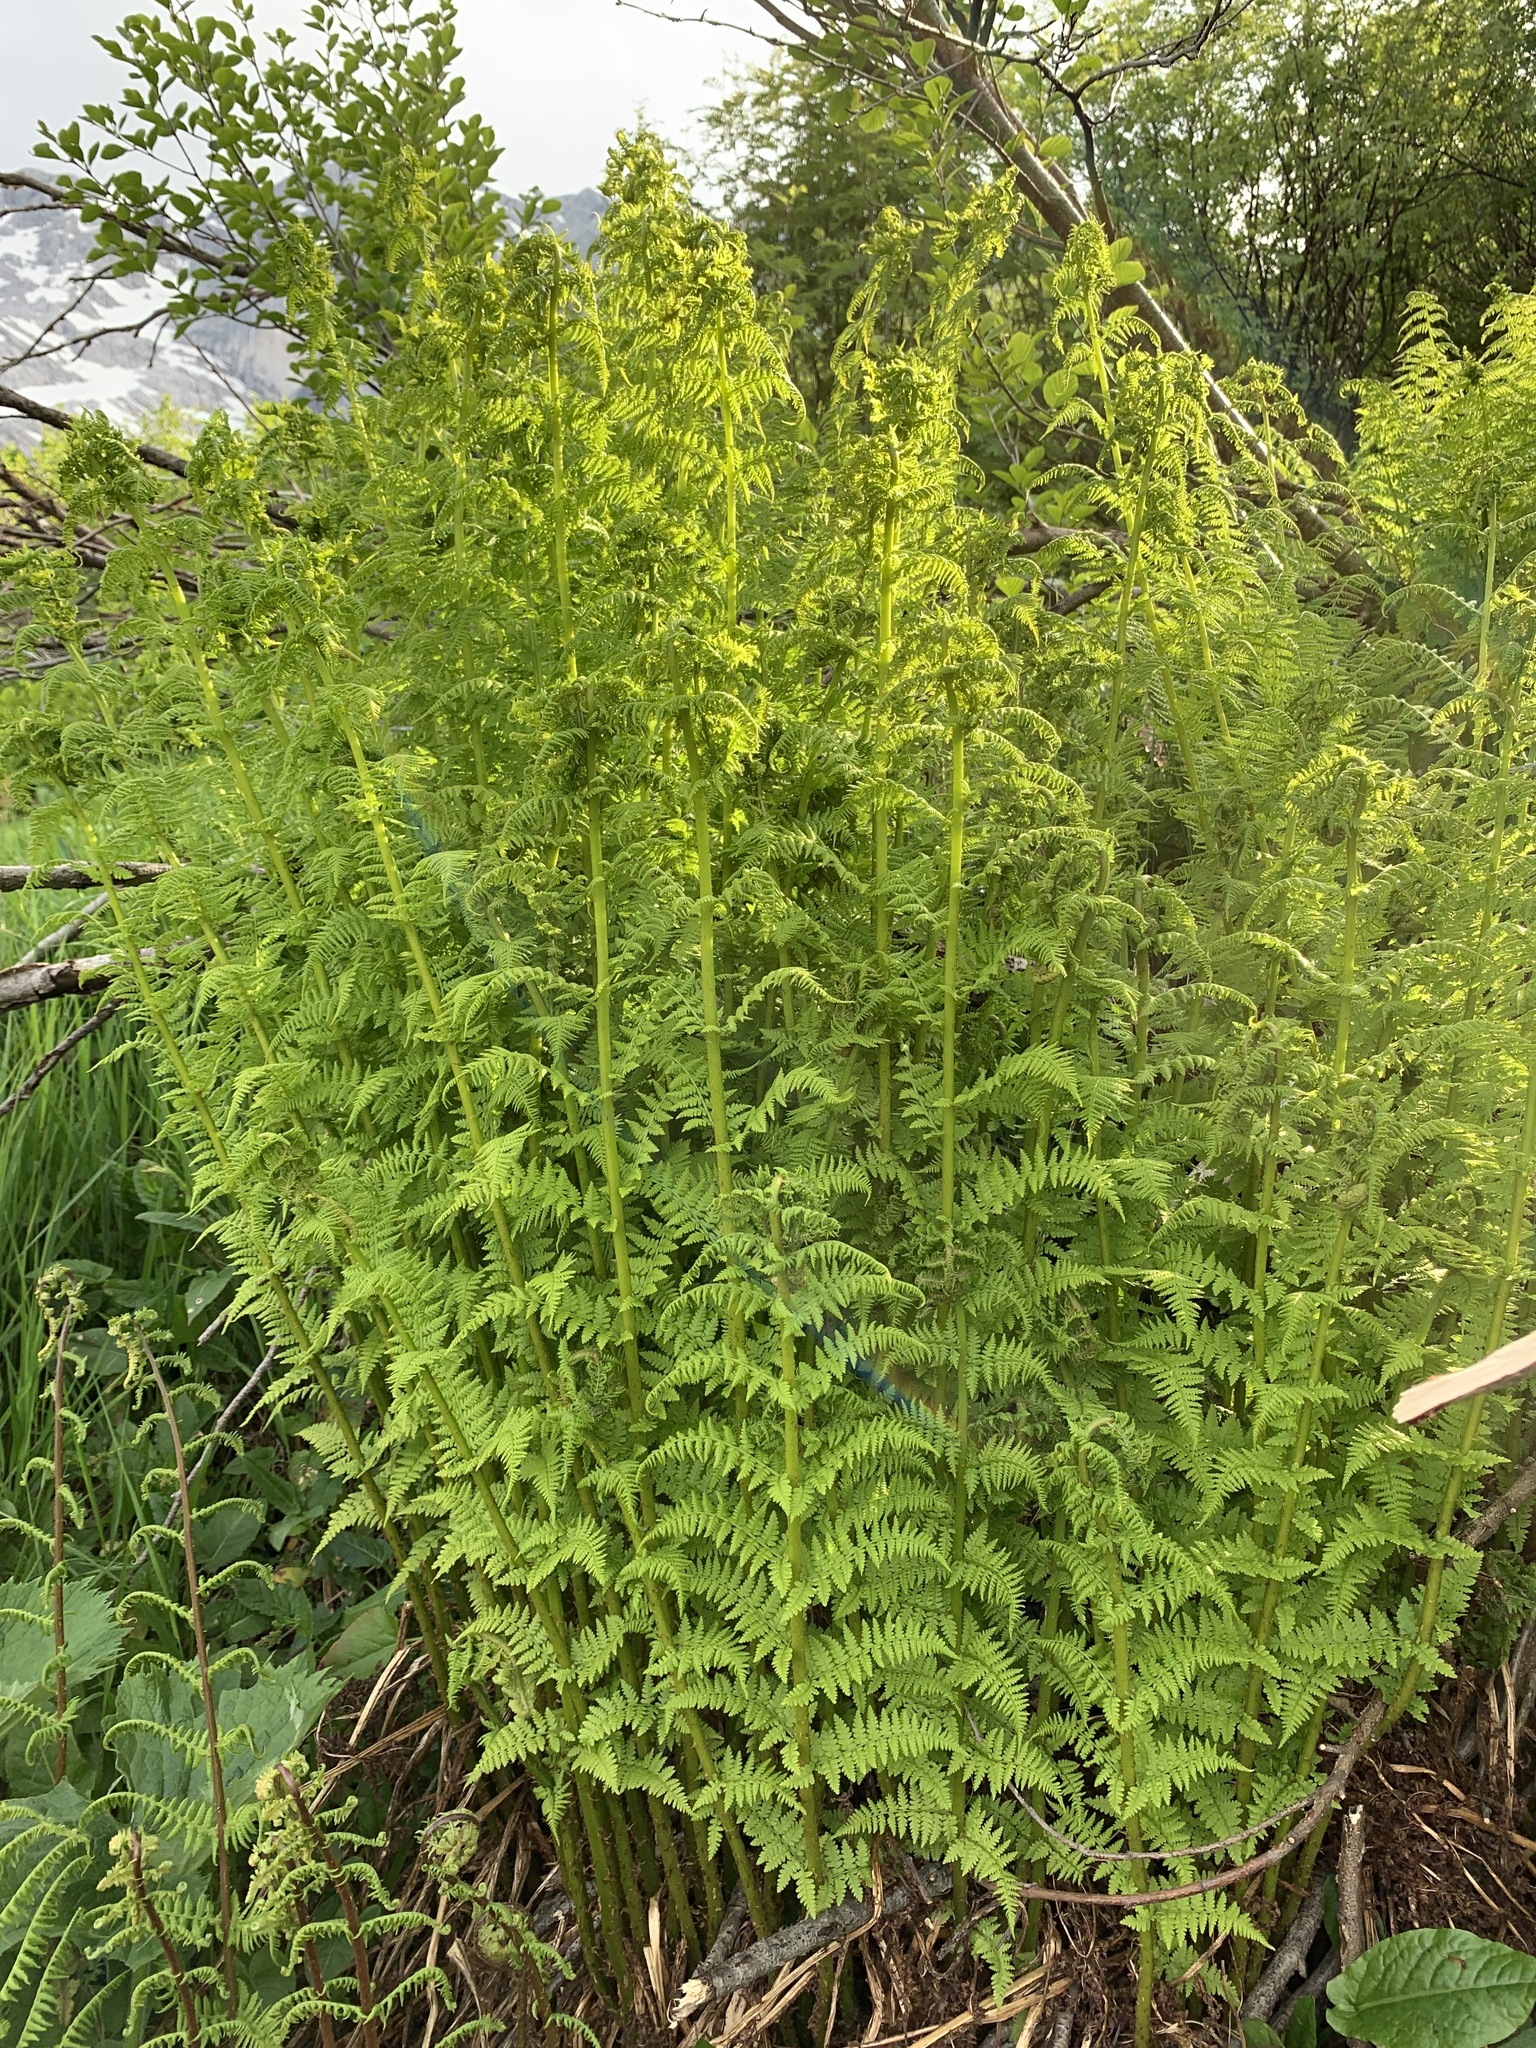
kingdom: Plantae
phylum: Tracheophyta
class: Polypodiopsida
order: Polypodiales
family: Athyriaceae
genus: Pseudathyrium
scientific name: Pseudathyrium alpestre
